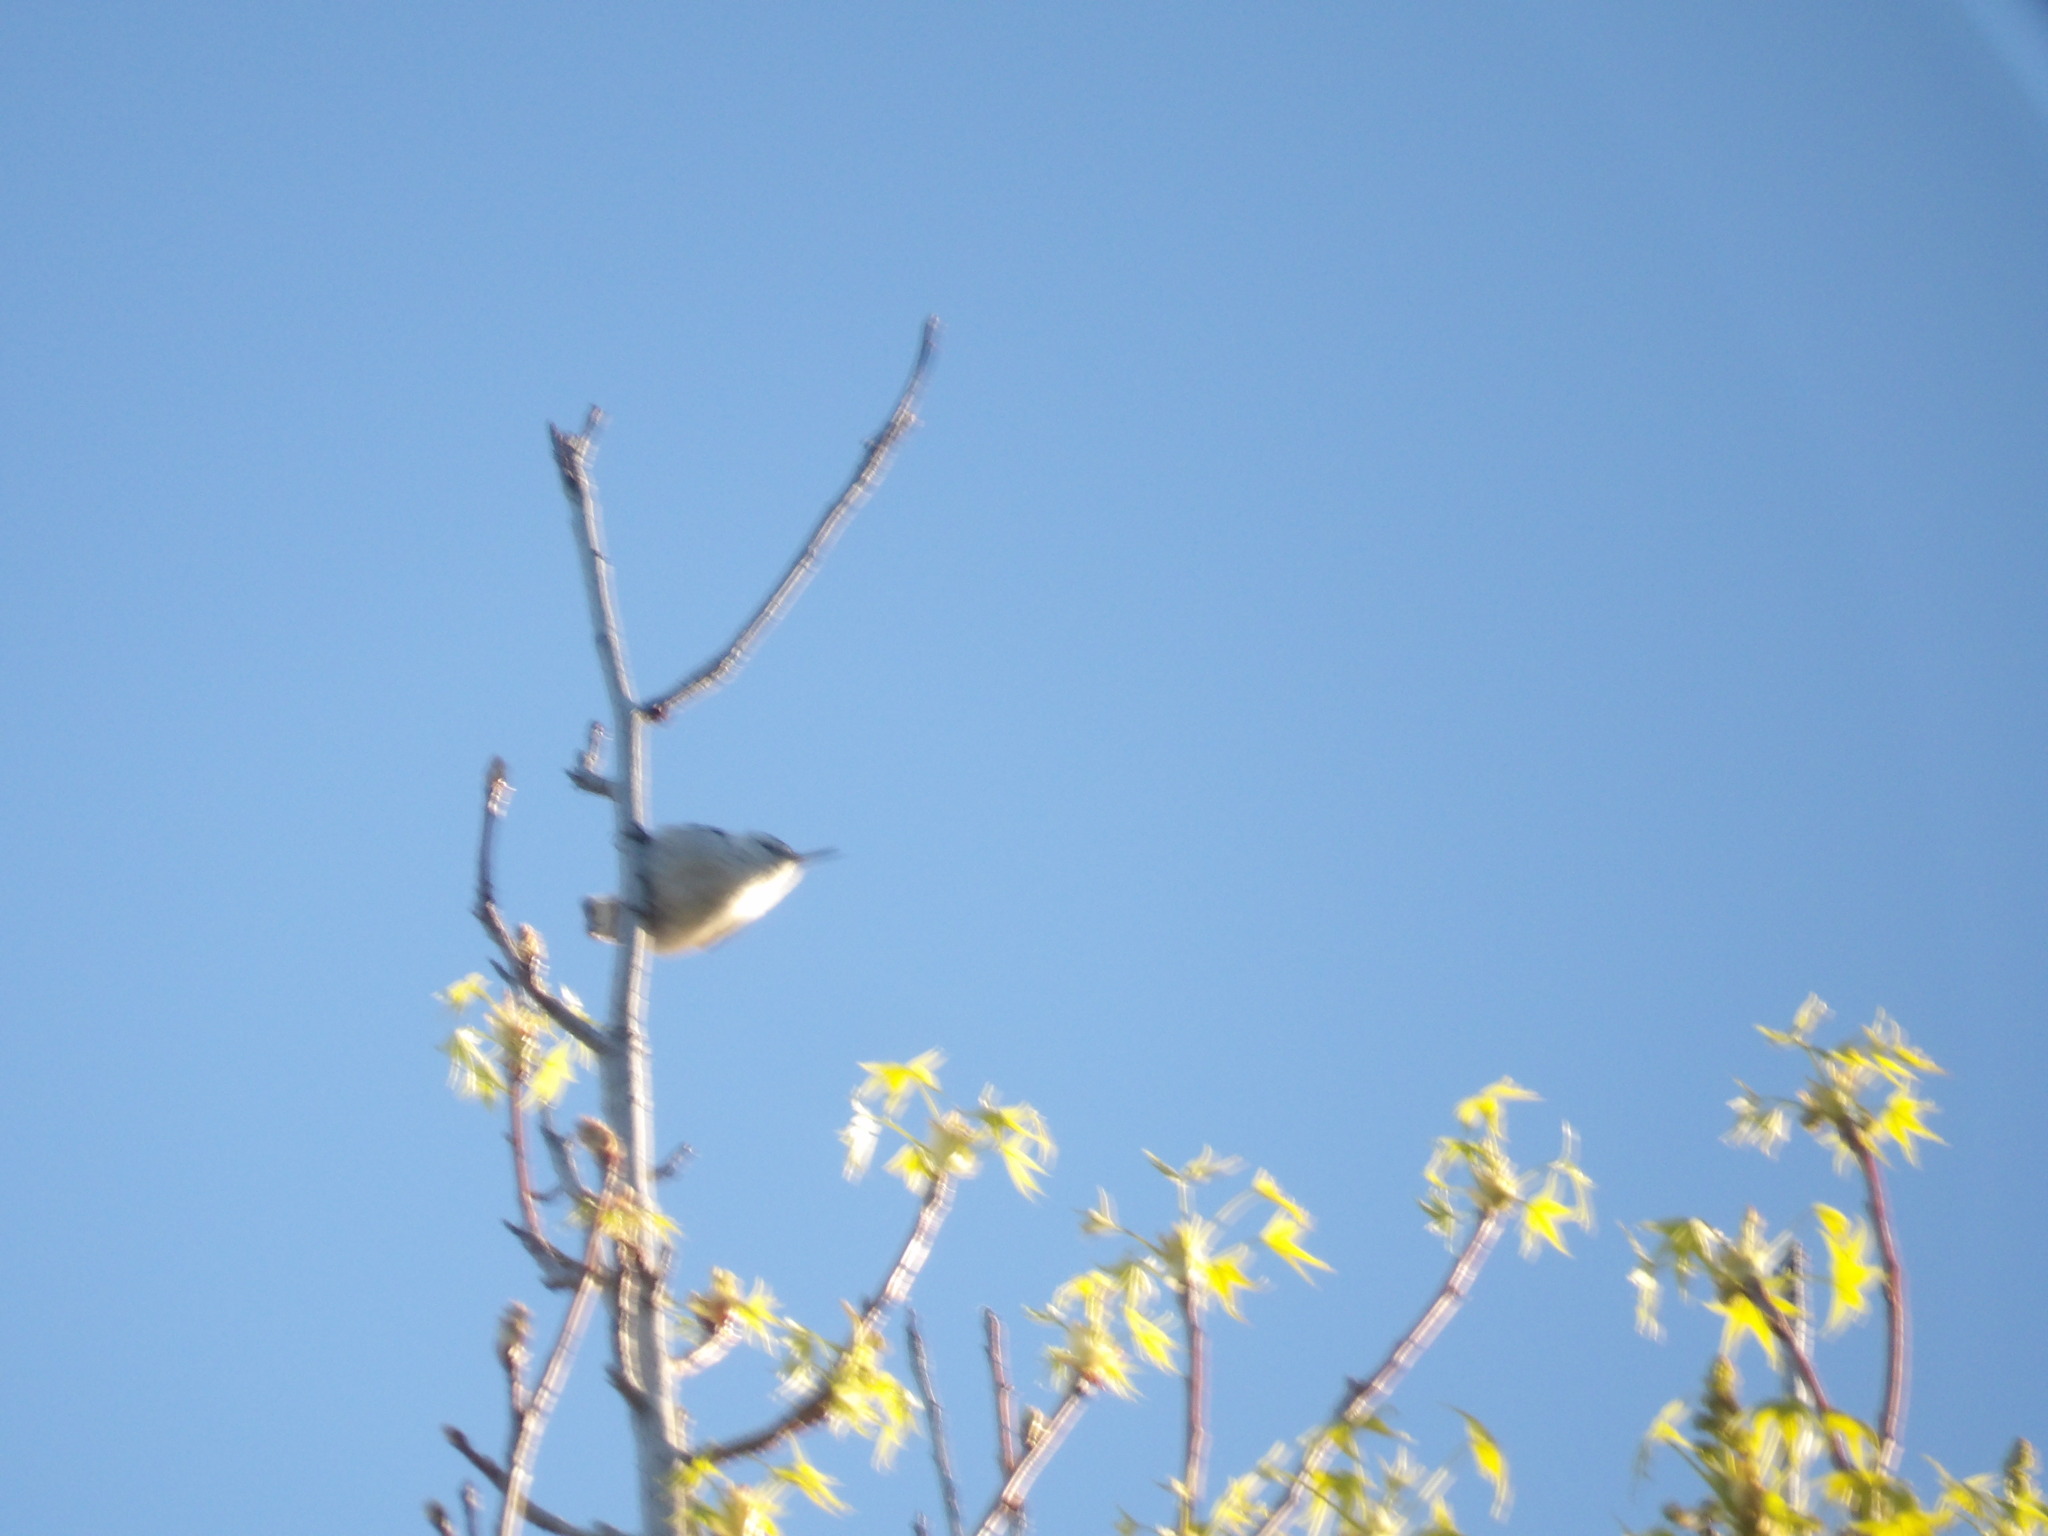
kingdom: Animalia
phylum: Chordata
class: Aves
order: Passeriformes
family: Sittidae
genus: Sitta
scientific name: Sitta carolinensis
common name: White-breasted nuthatch
